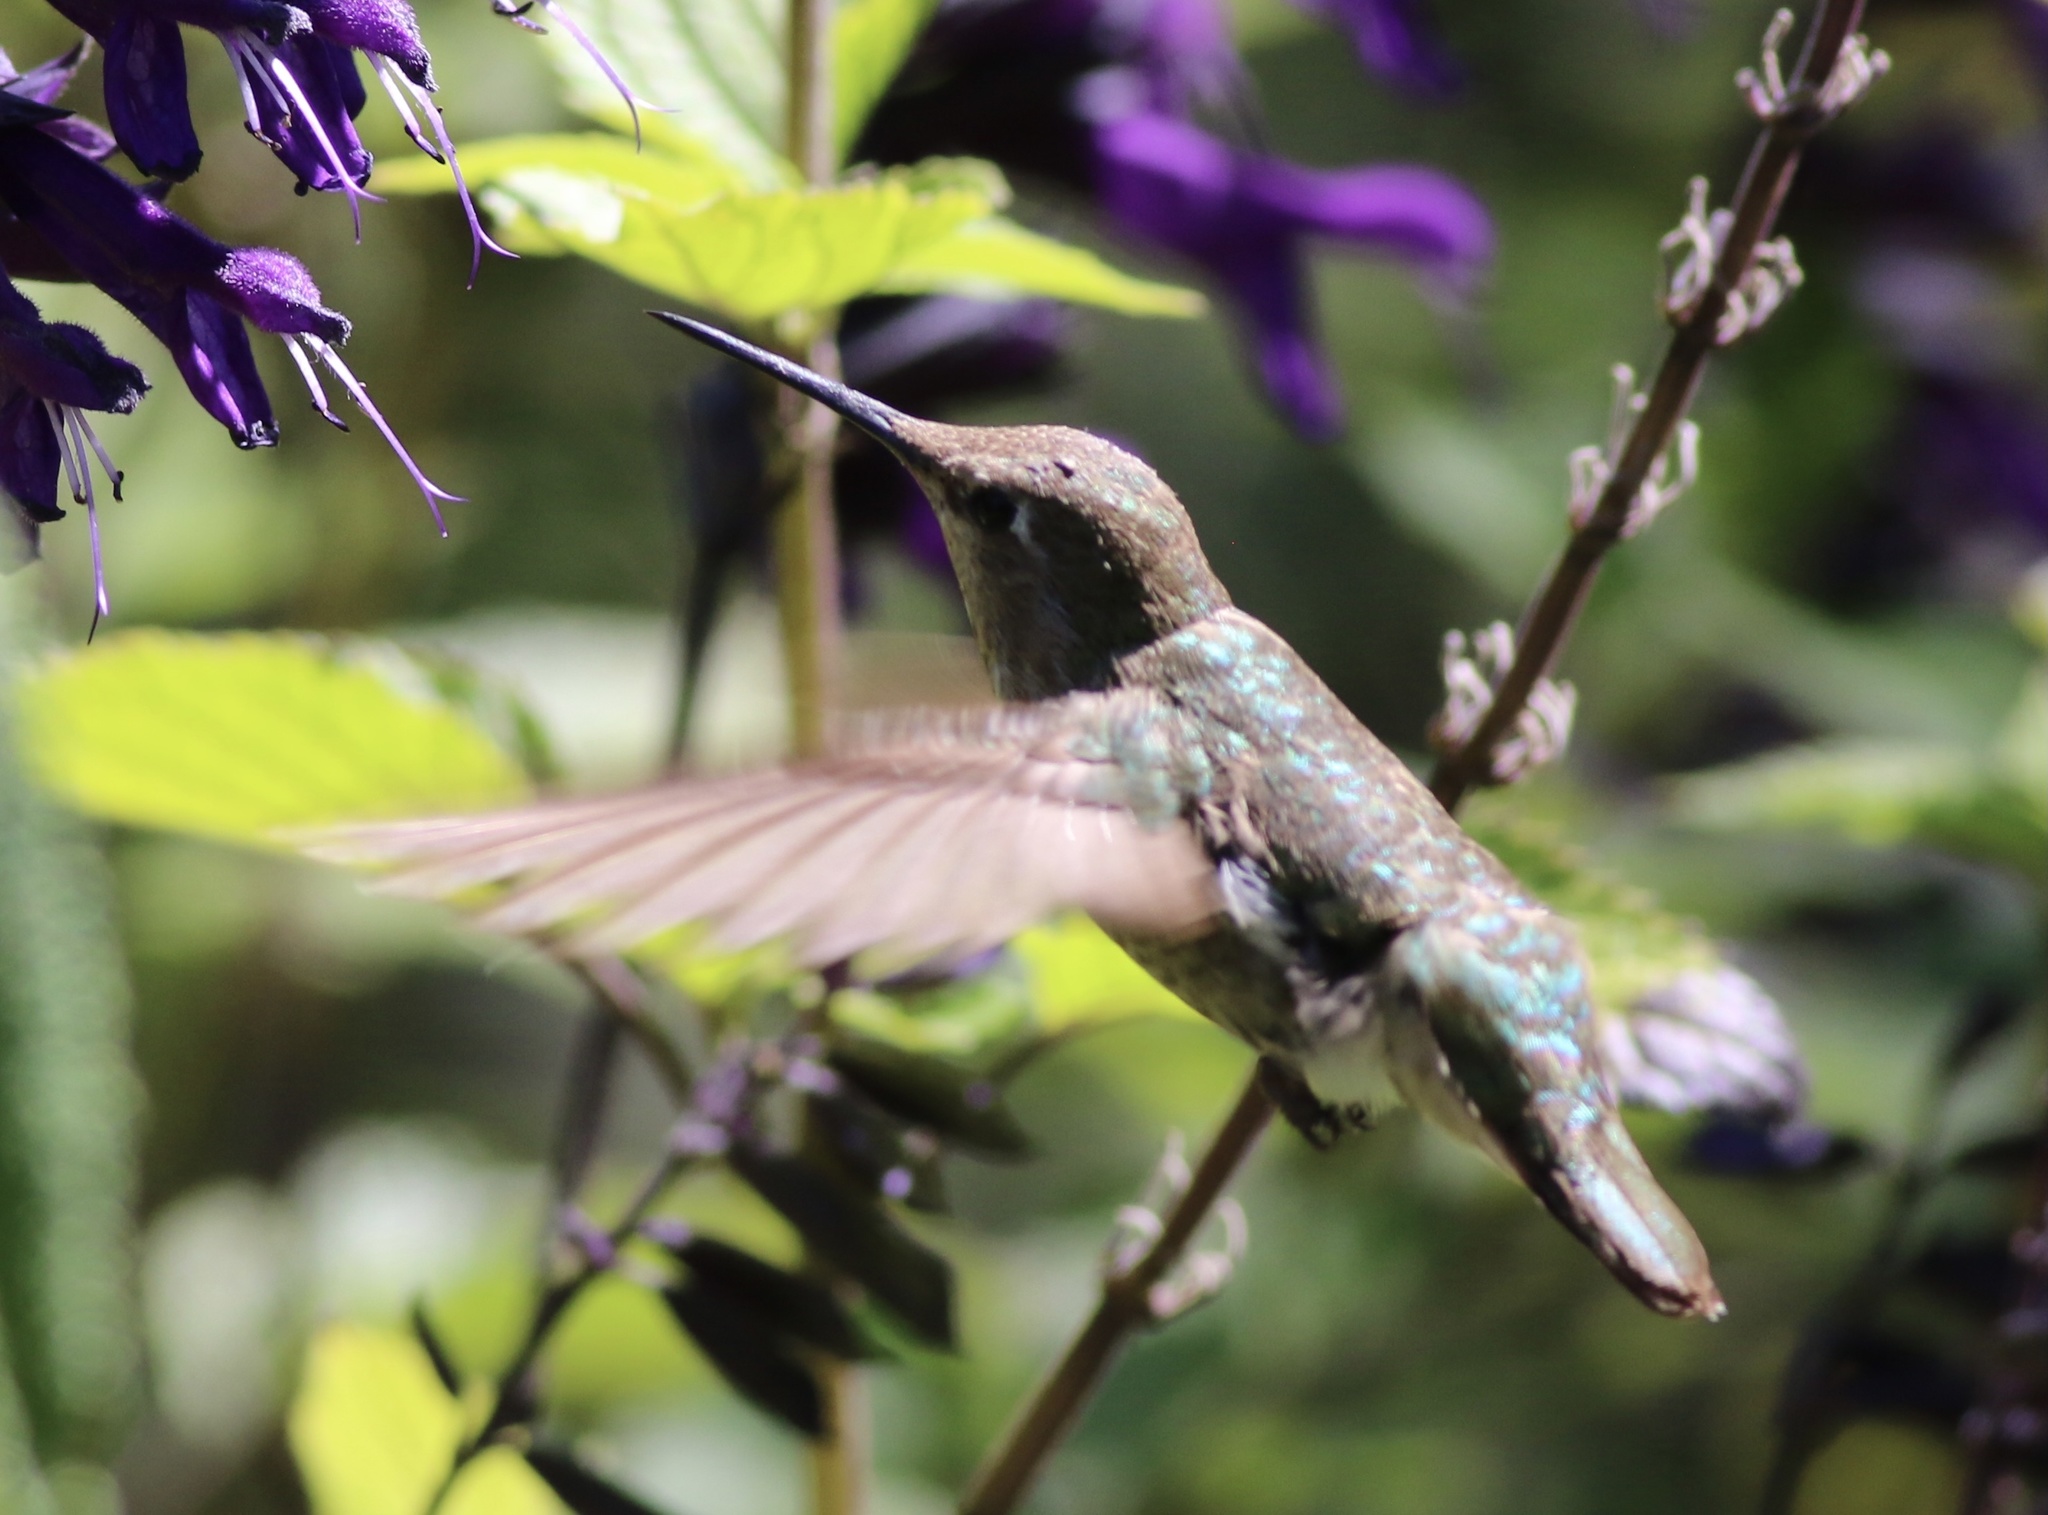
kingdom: Animalia
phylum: Chordata
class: Aves
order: Apodiformes
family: Trochilidae
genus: Calypte
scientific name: Calypte anna
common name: Anna's hummingbird
